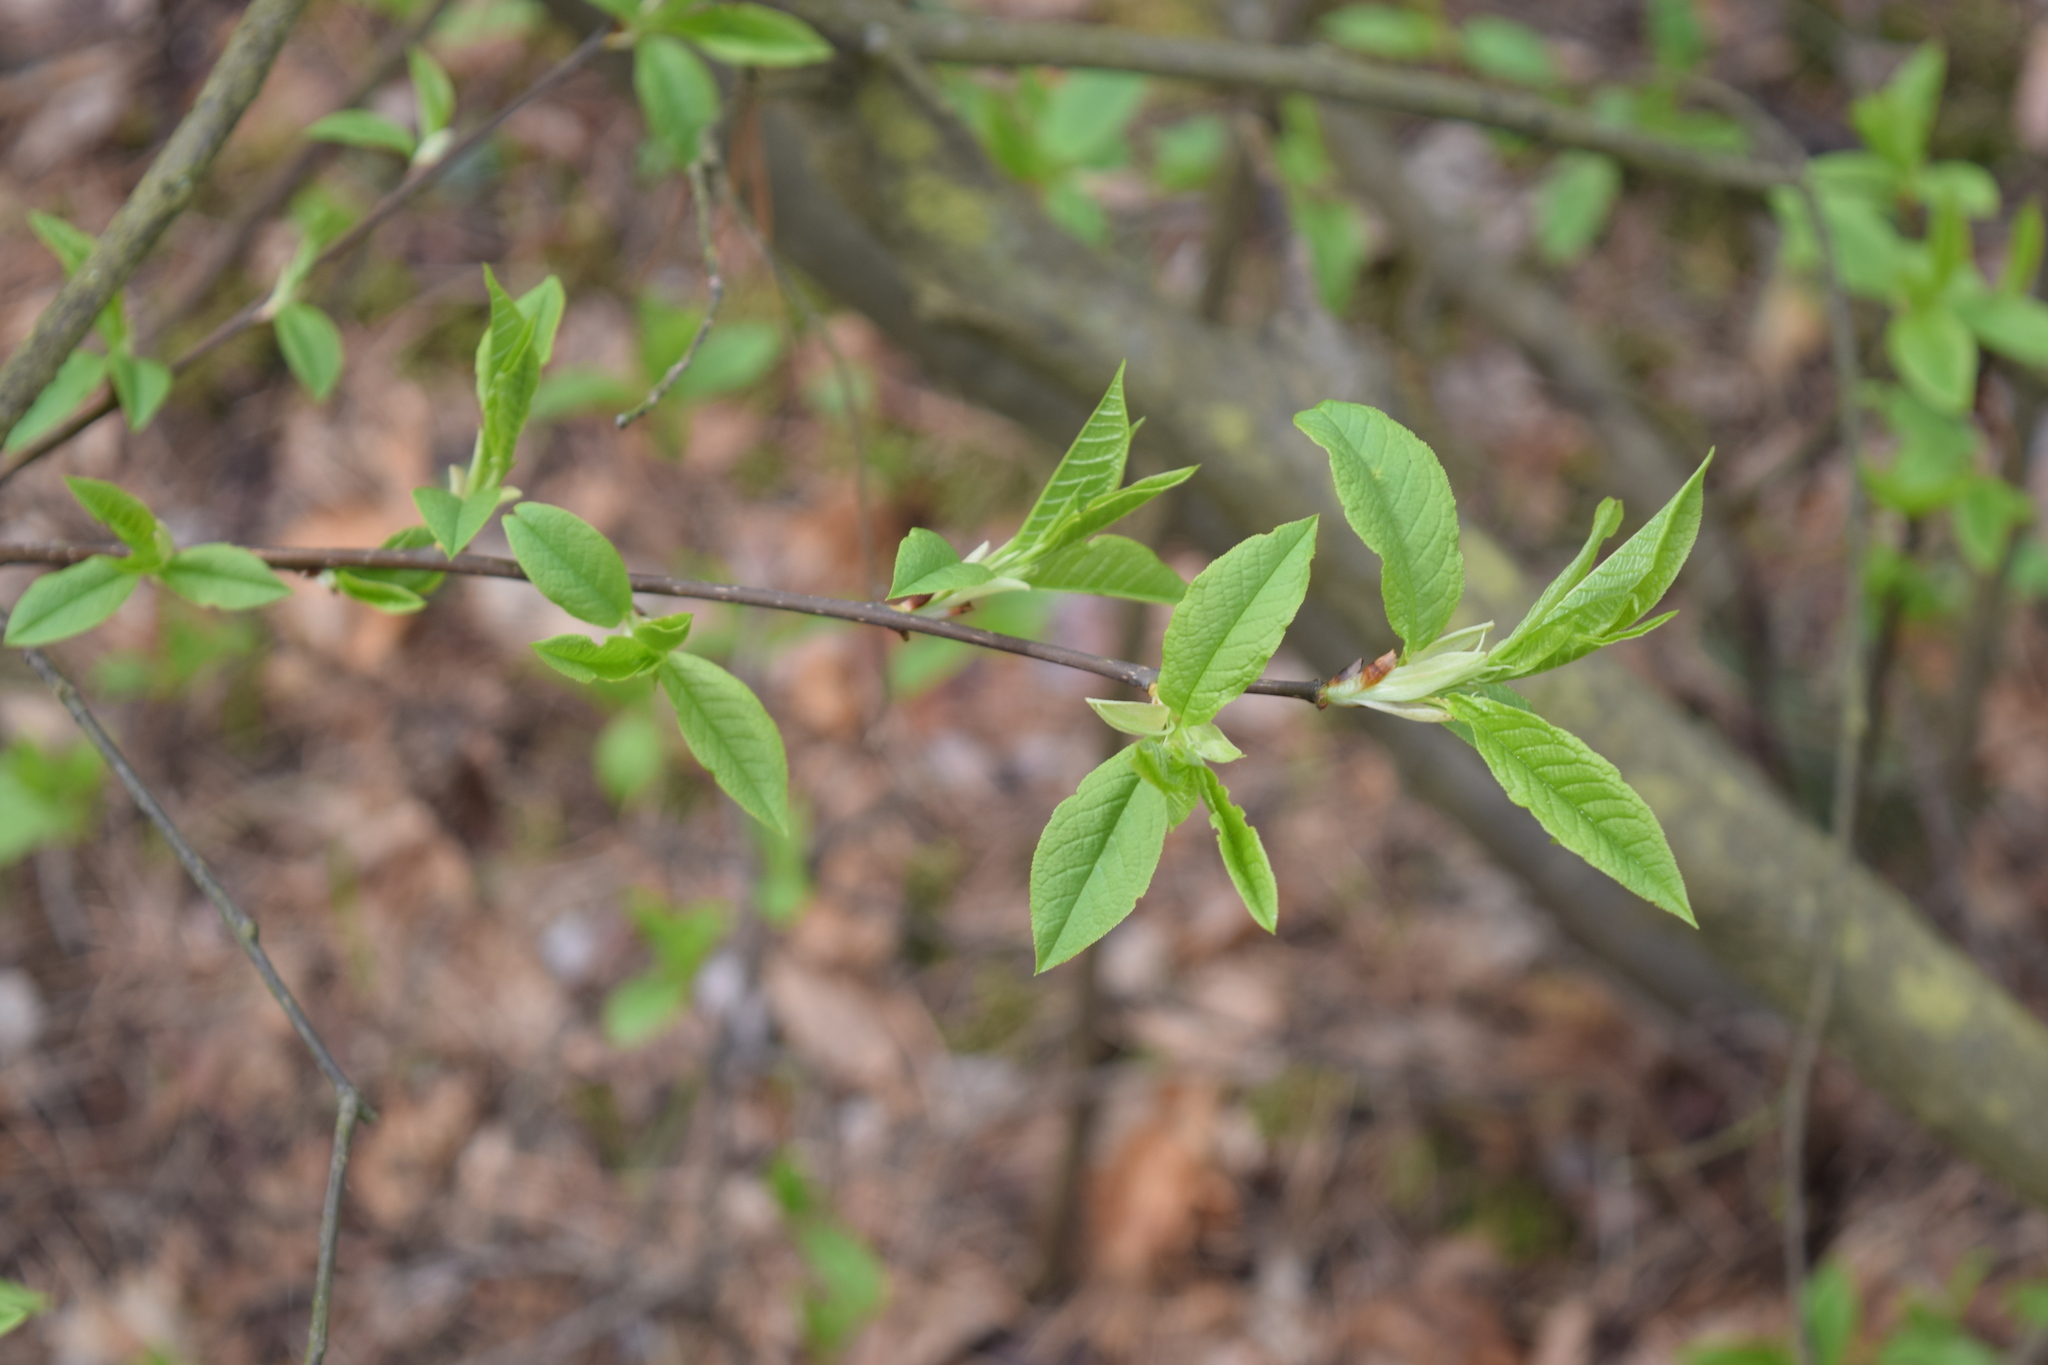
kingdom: Plantae
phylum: Tracheophyta
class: Magnoliopsida
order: Rosales
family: Rosaceae
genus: Prunus
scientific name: Prunus padus
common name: Bird cherry
